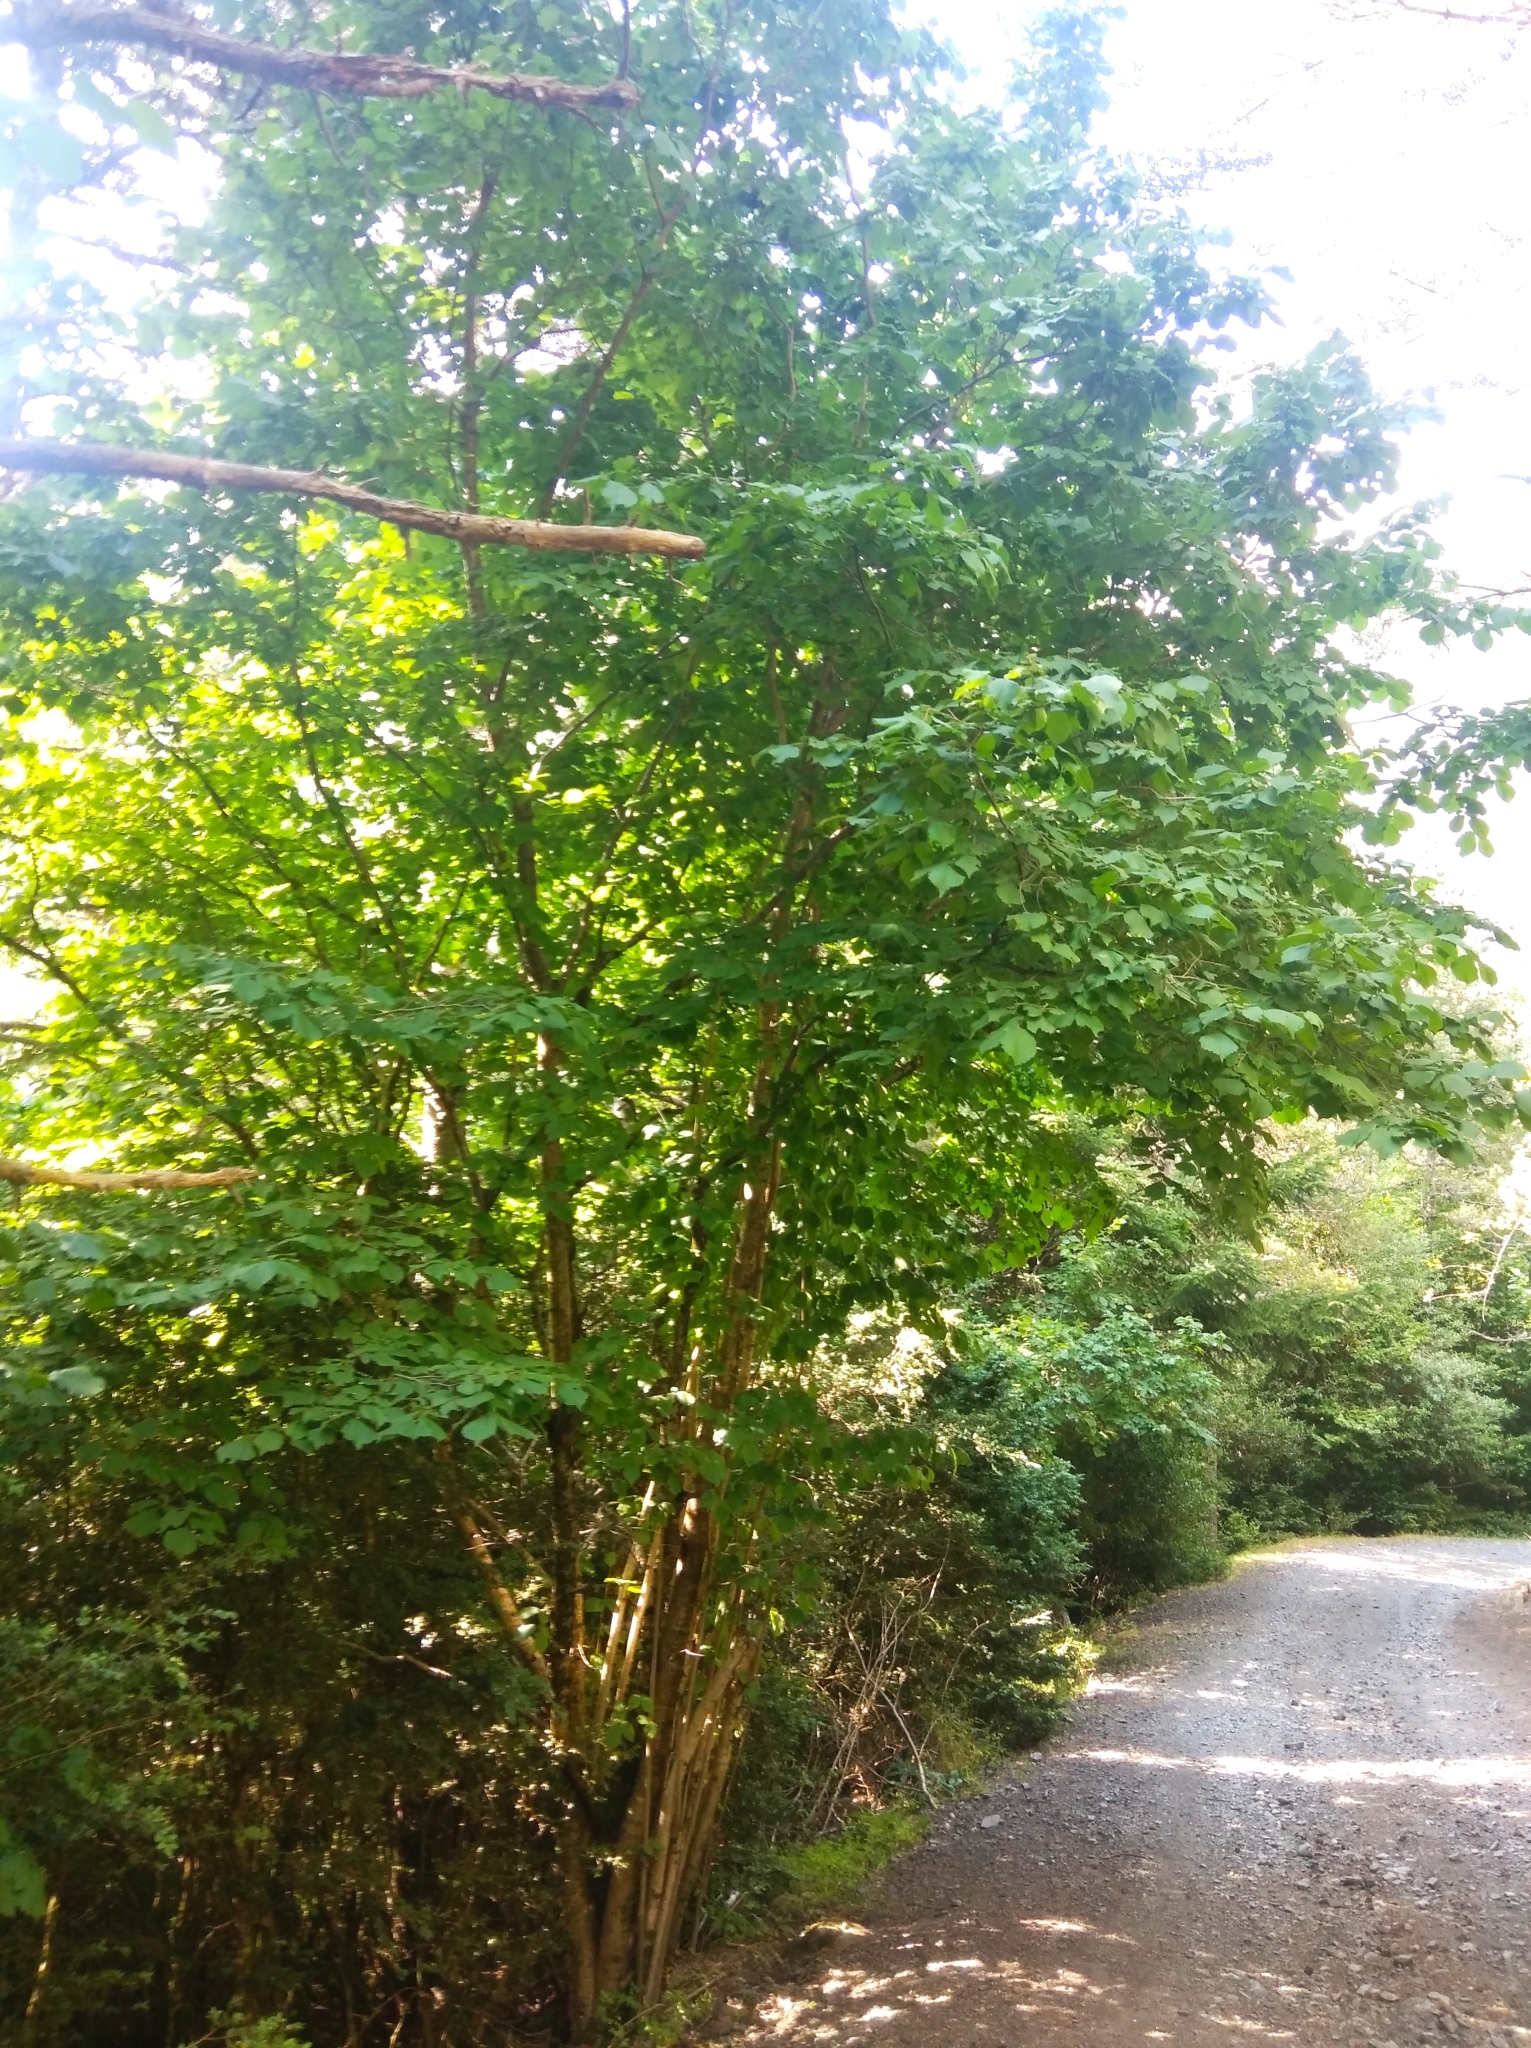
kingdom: Plantae
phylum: Tracheophyta
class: Magnoliopsida
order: Fagales
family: Betulaceae
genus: Corylus
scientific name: Corylus avellana
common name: European hazel
